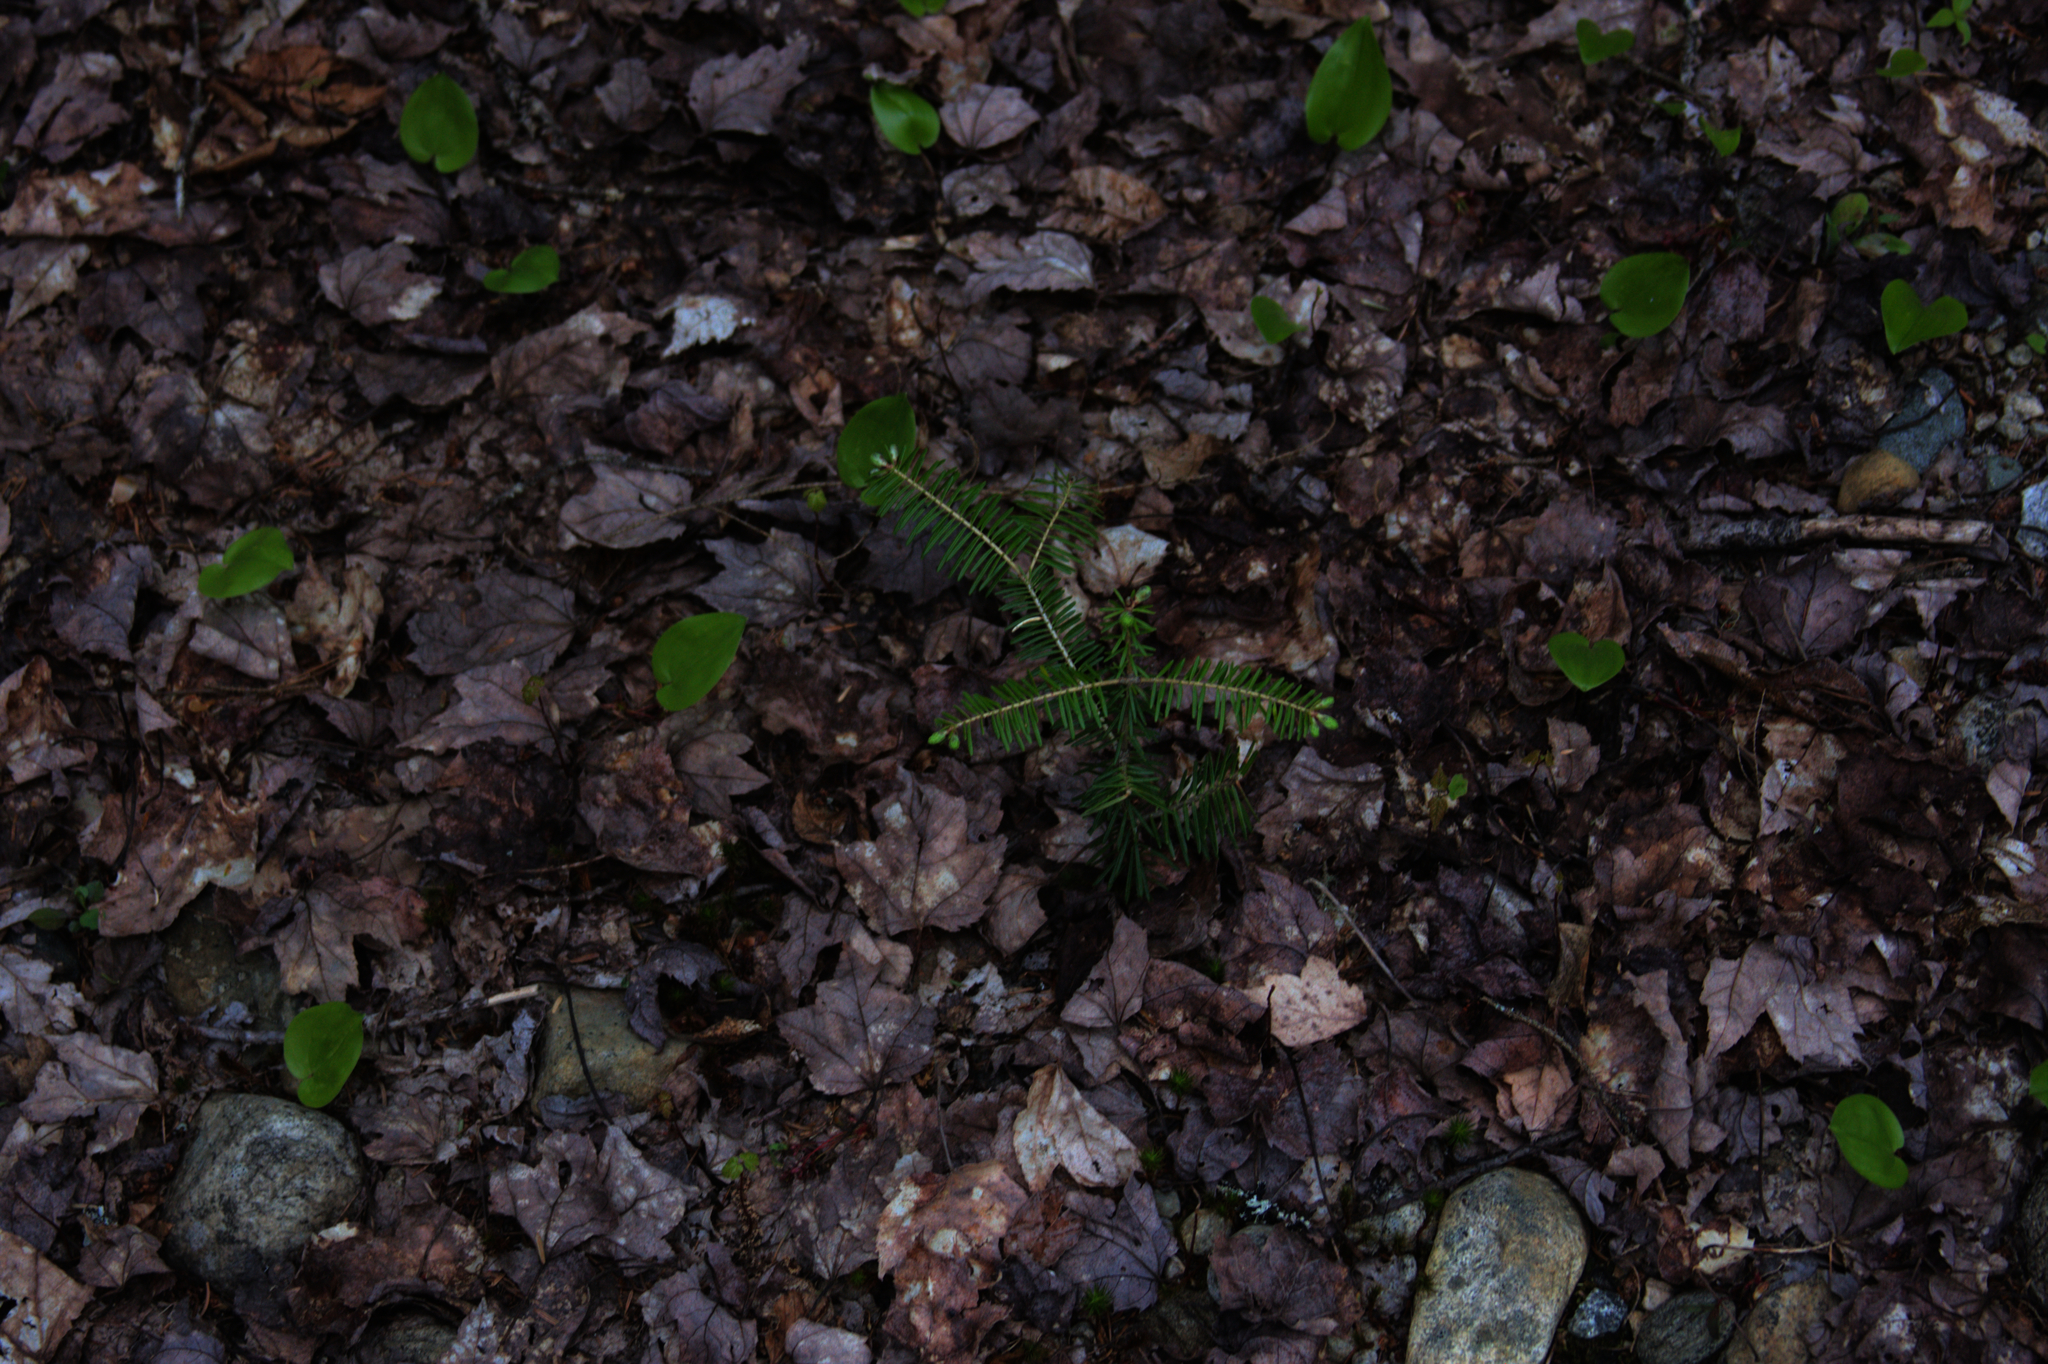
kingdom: Plantae
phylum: Tracheophyta
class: Liliopsida
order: Asparagales
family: Asparagaceae
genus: Maianthemum
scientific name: Maianthemum canadense
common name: False lily-of-the-valley
